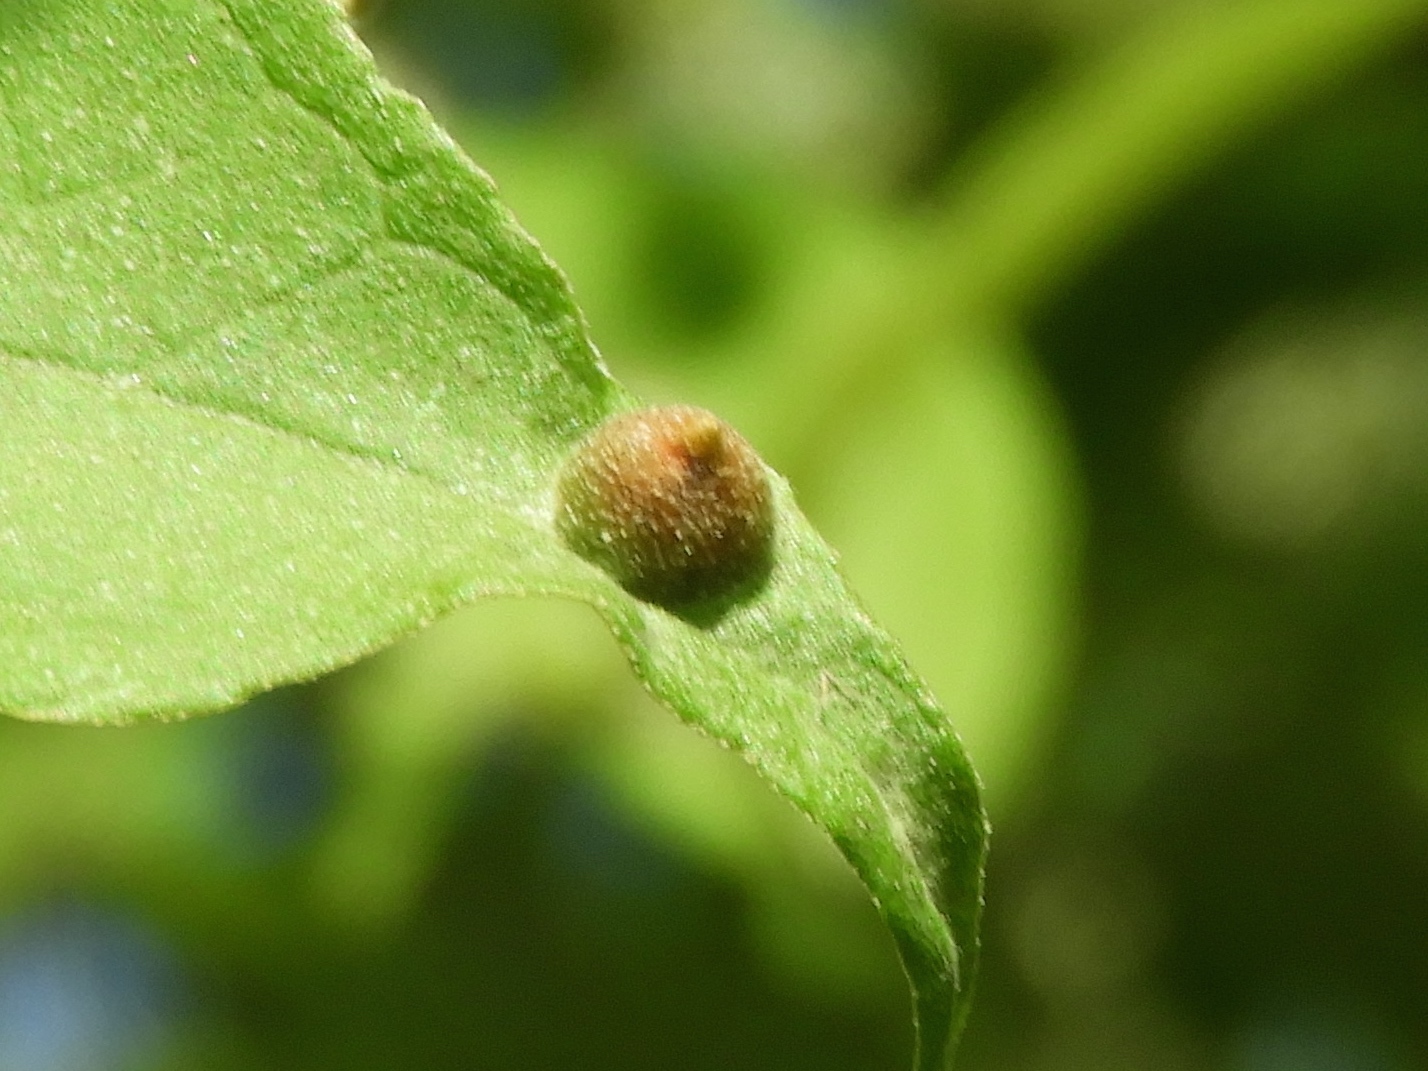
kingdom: Animalia
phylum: Arthropoda
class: Insecta
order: Diptera
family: Cecidomyiidae
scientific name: Cecidomyiidae
